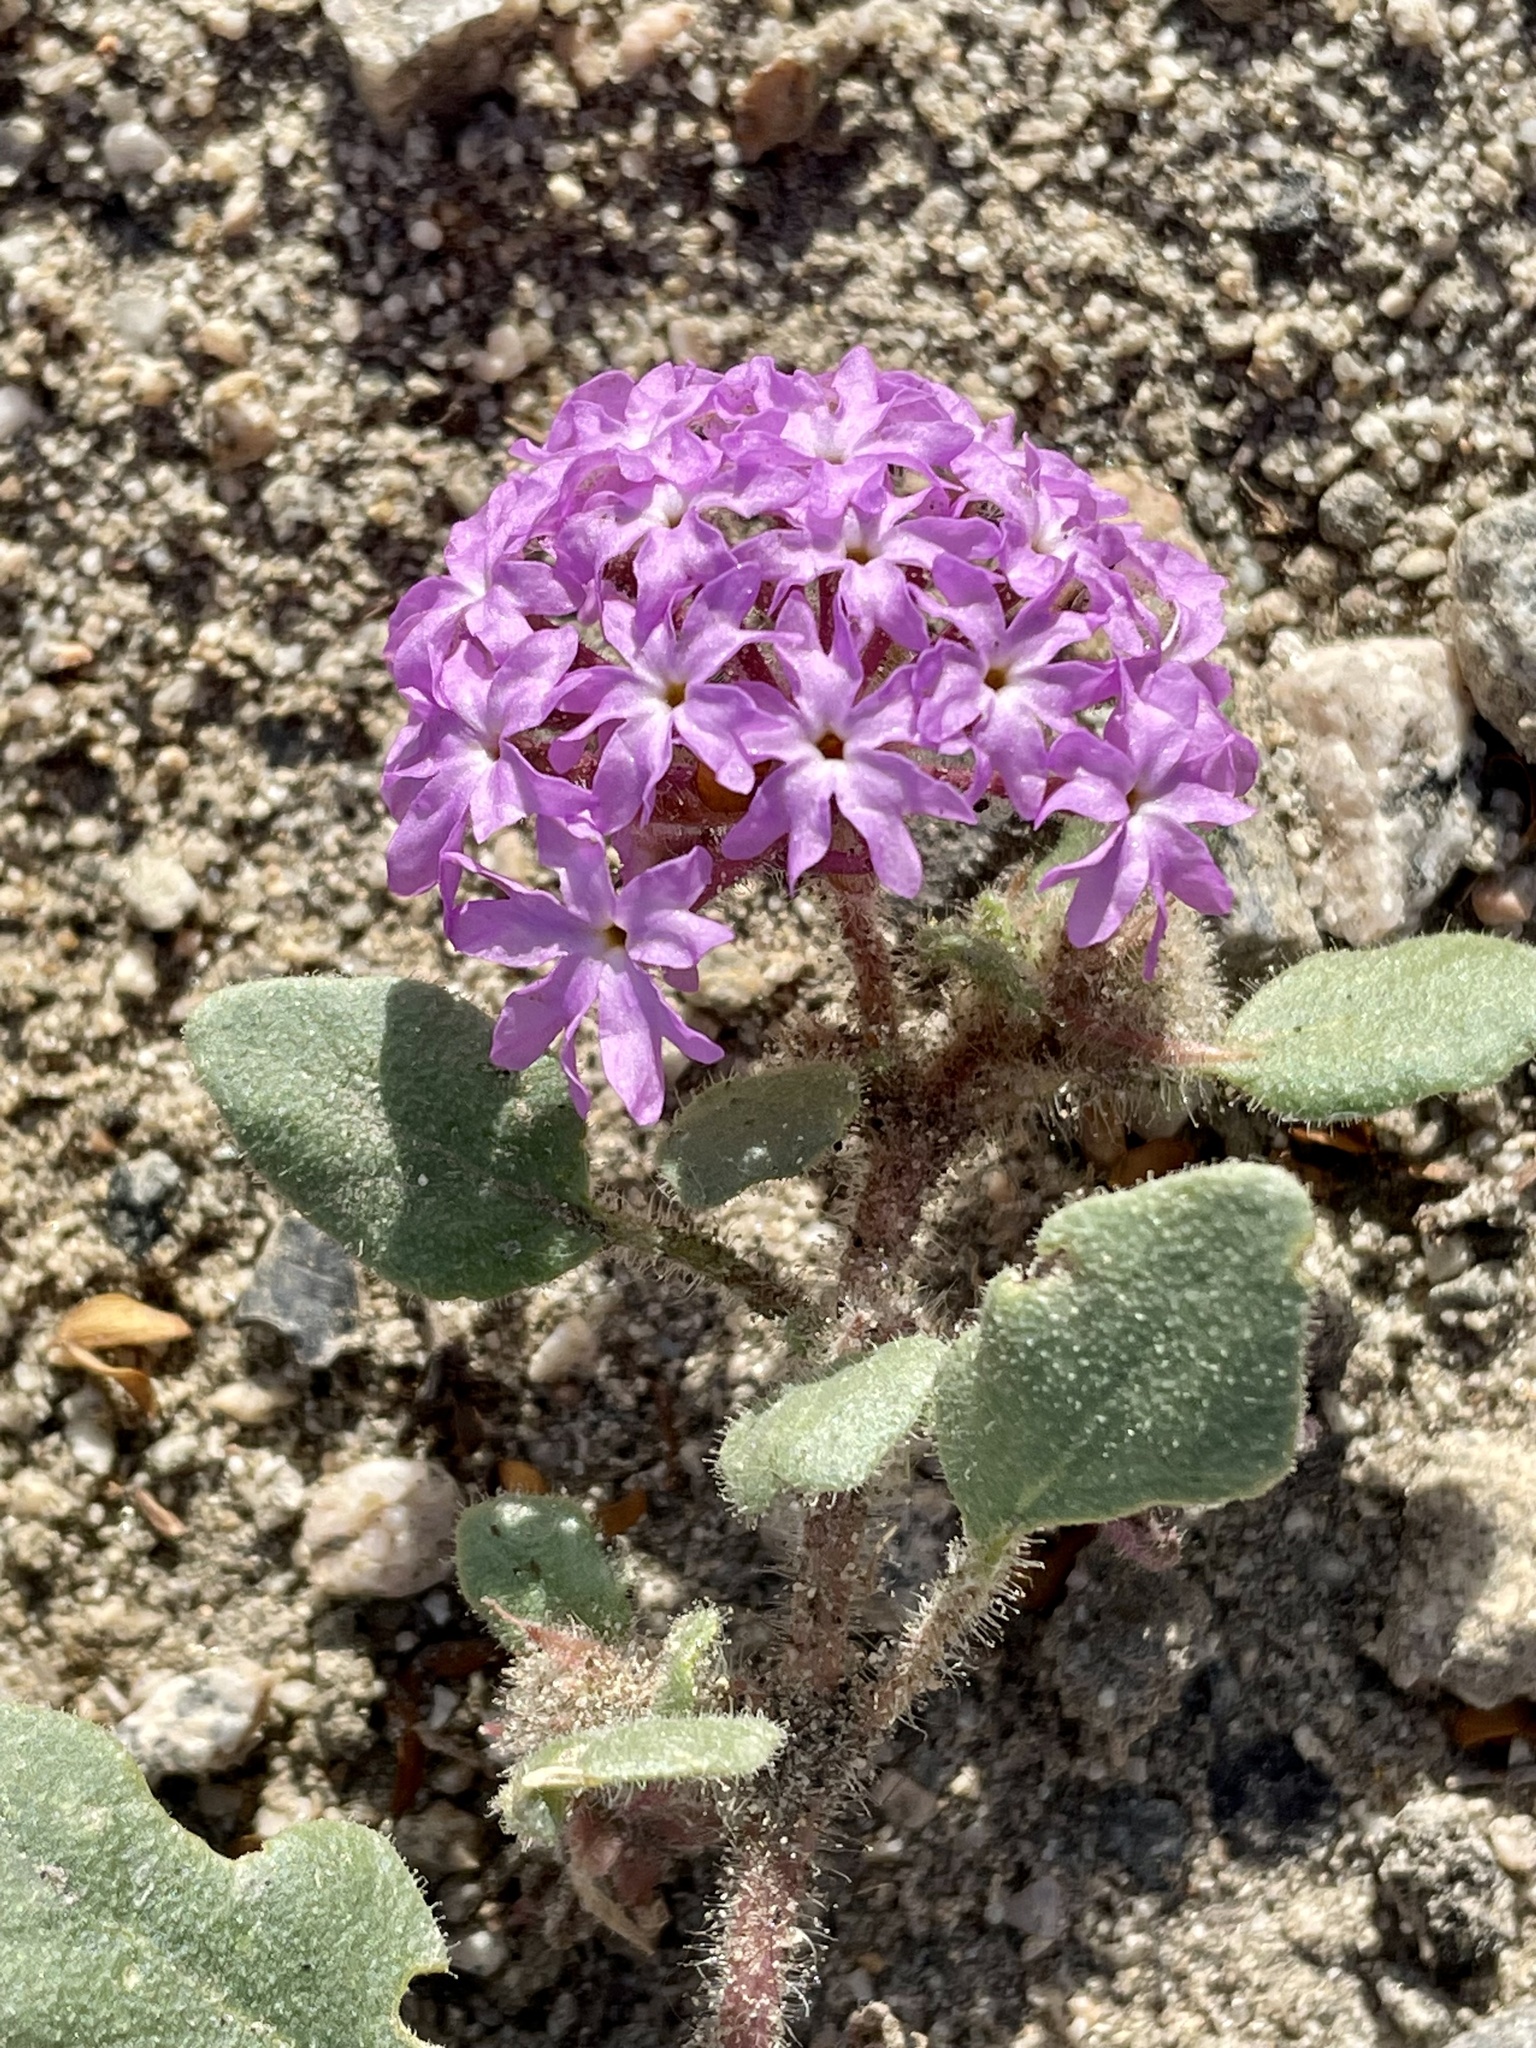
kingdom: Plantae
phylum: Tracheophyta
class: Magnoliopsida
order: Caryophyllales
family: Nyctaginaceae
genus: Abronia
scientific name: Abronia villosa
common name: Desert sand-verbena
